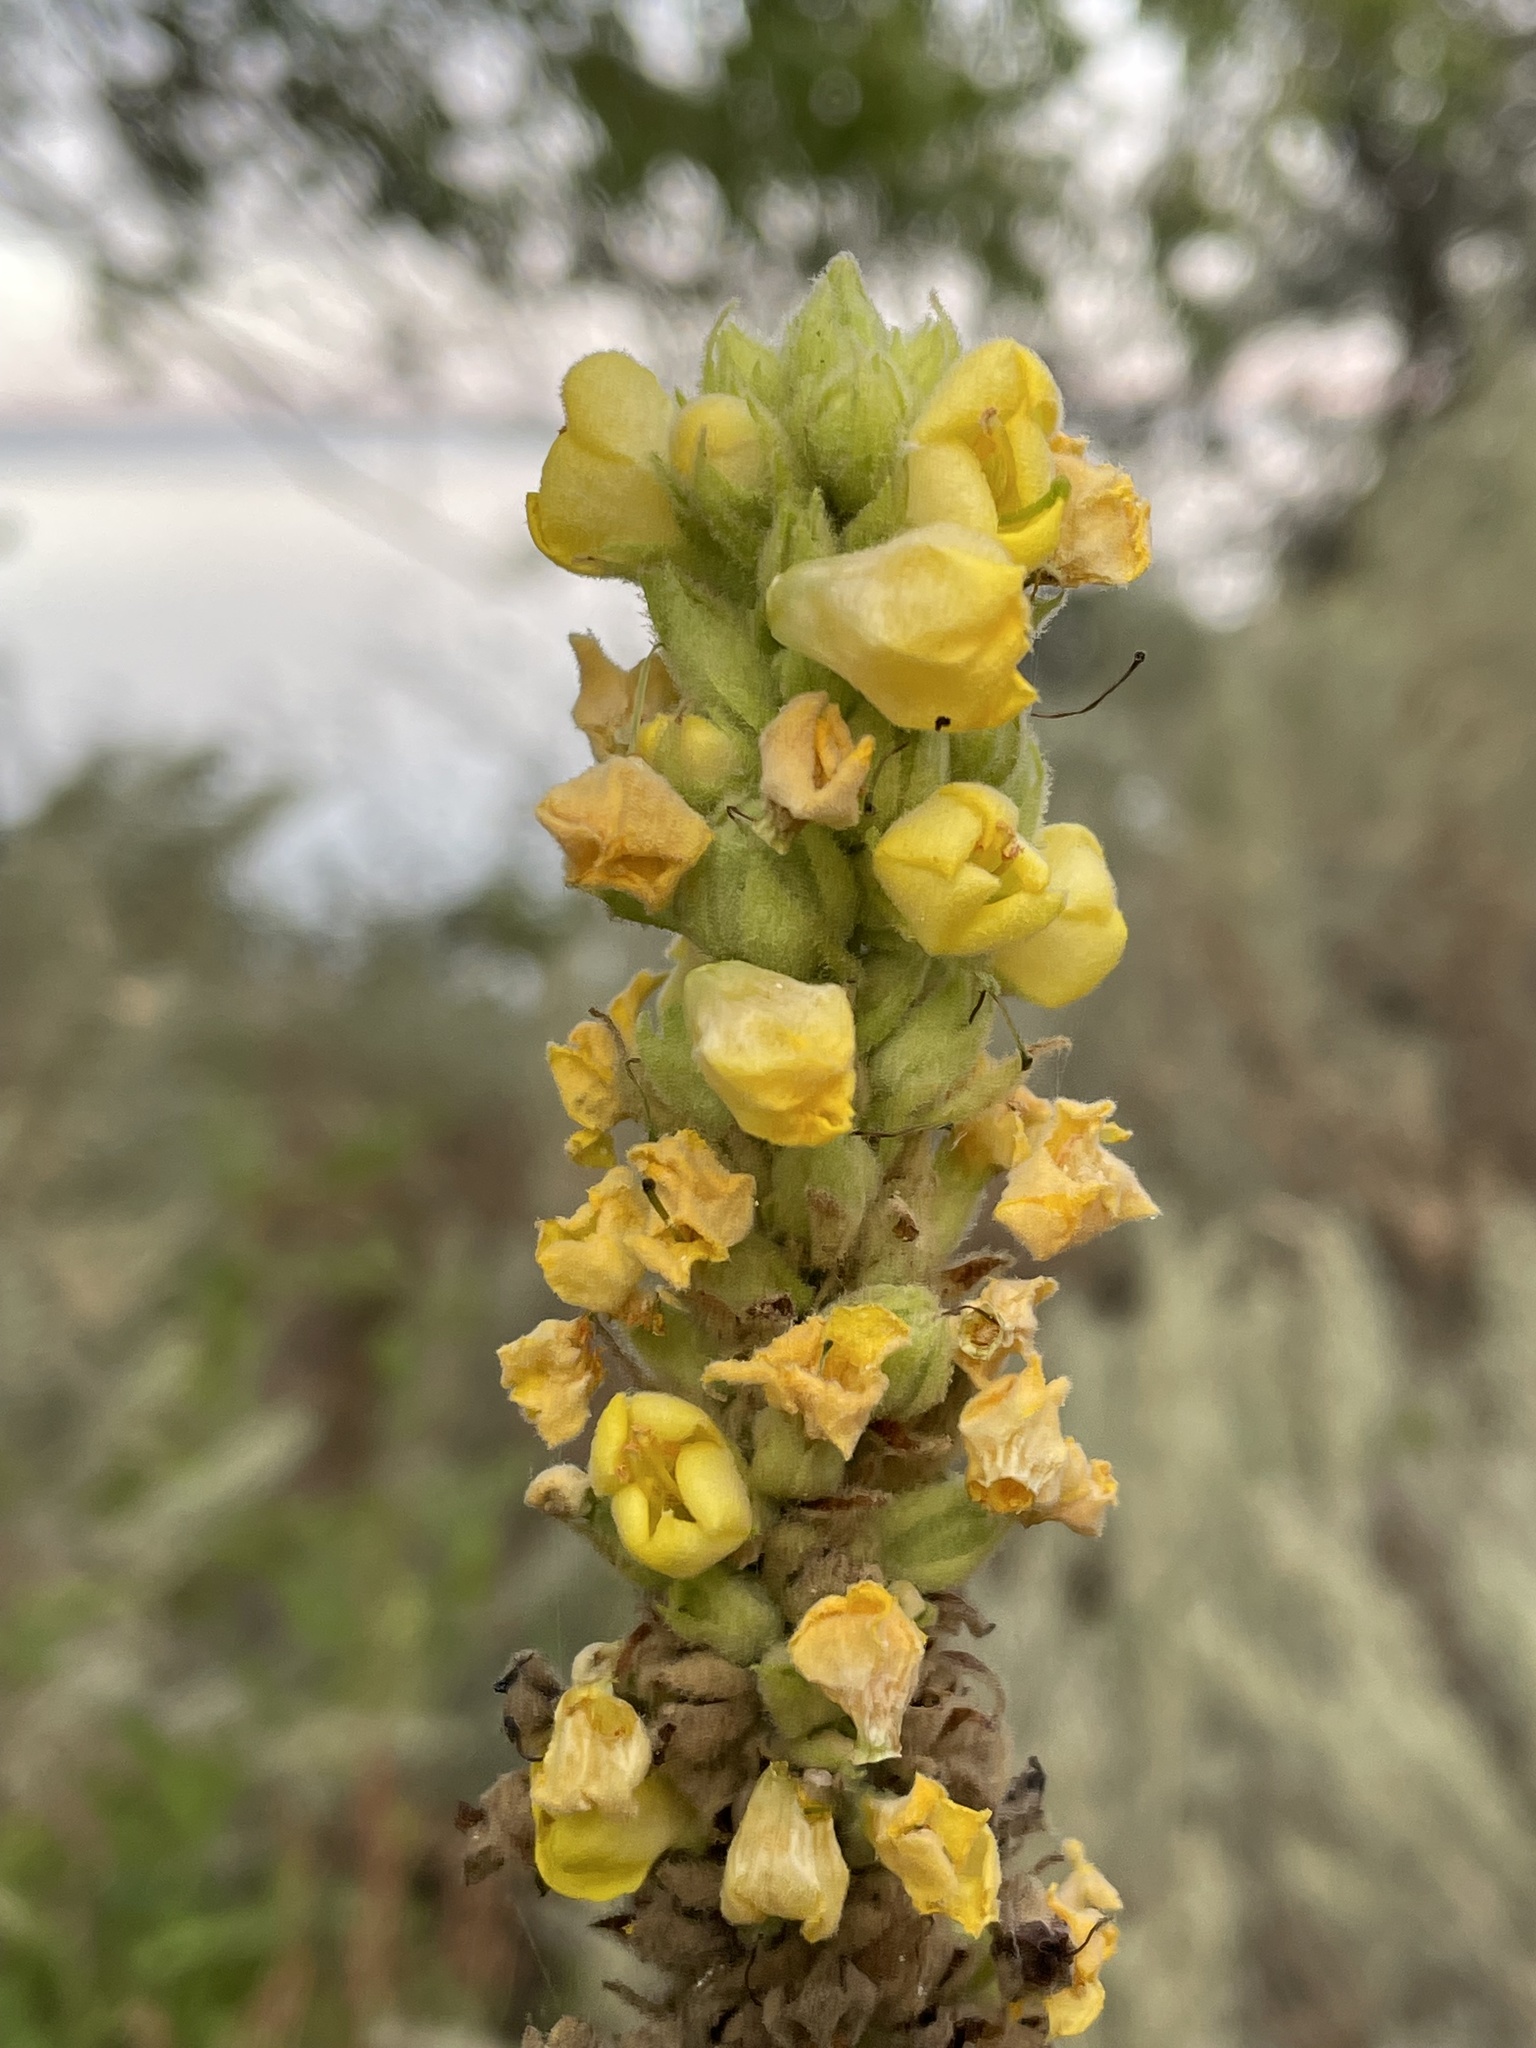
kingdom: Plantae
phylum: Tracheophyta
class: Magnoliopsida
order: Lamiales
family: Scrophulariaceae
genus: Verbascum
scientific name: Verbascum thapsus
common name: Common mullein
